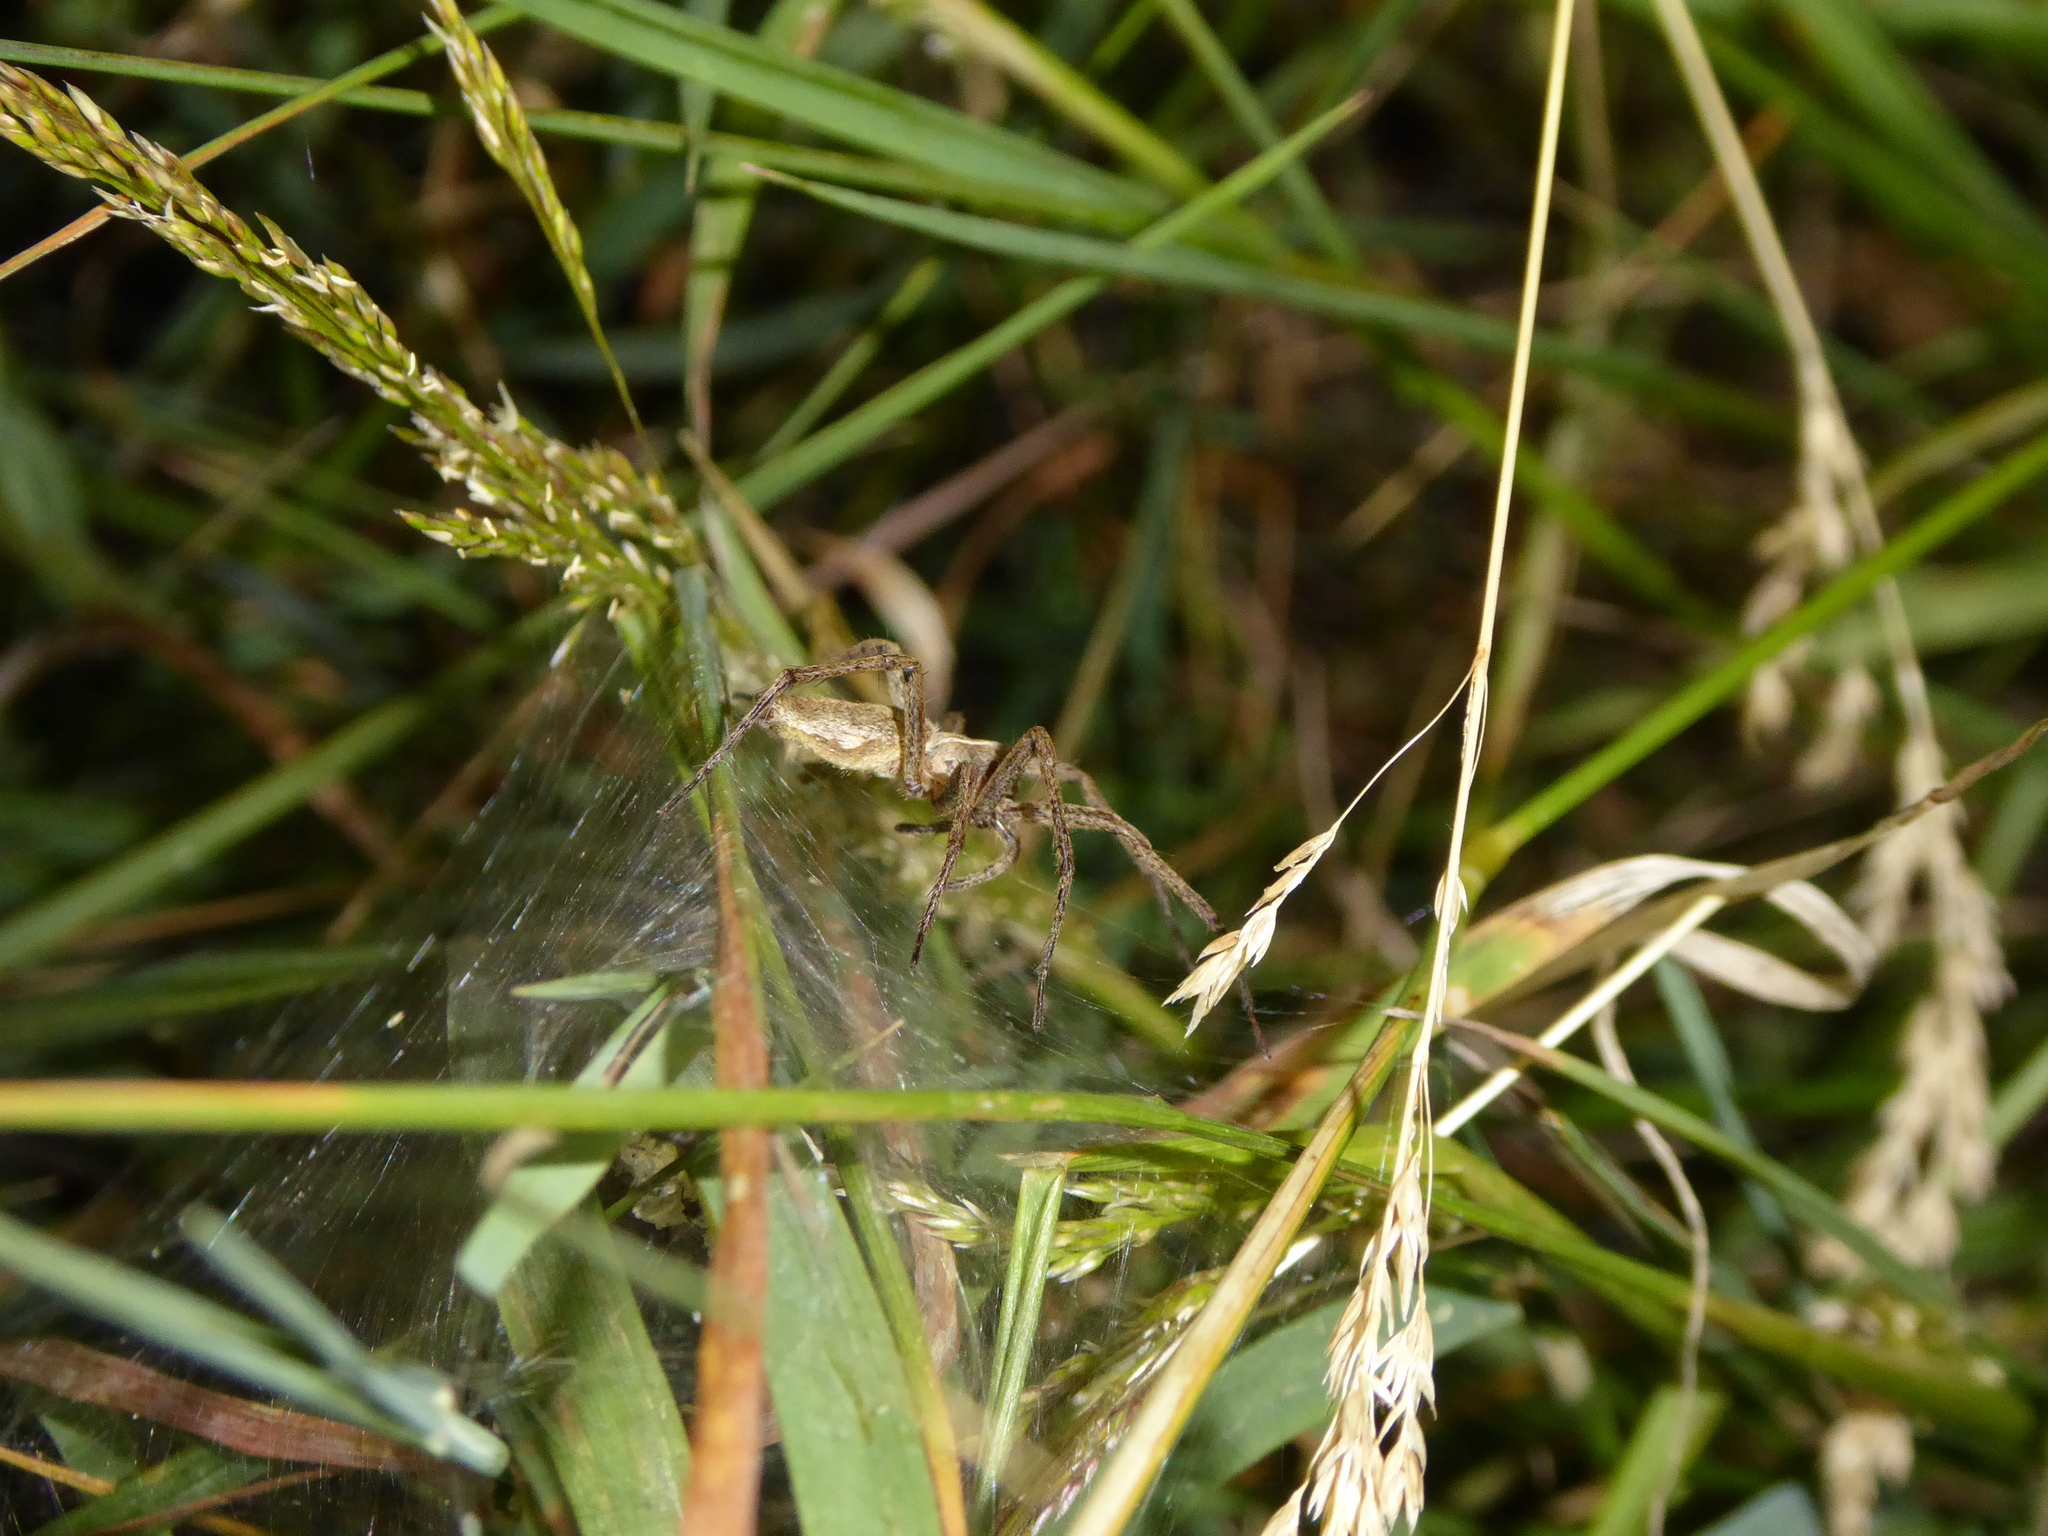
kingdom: Animalia
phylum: Arthropoda
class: Arachnida
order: Araneae
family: Pisauridae
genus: Pisaura
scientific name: Pisaura mirabilis
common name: Tent spider
